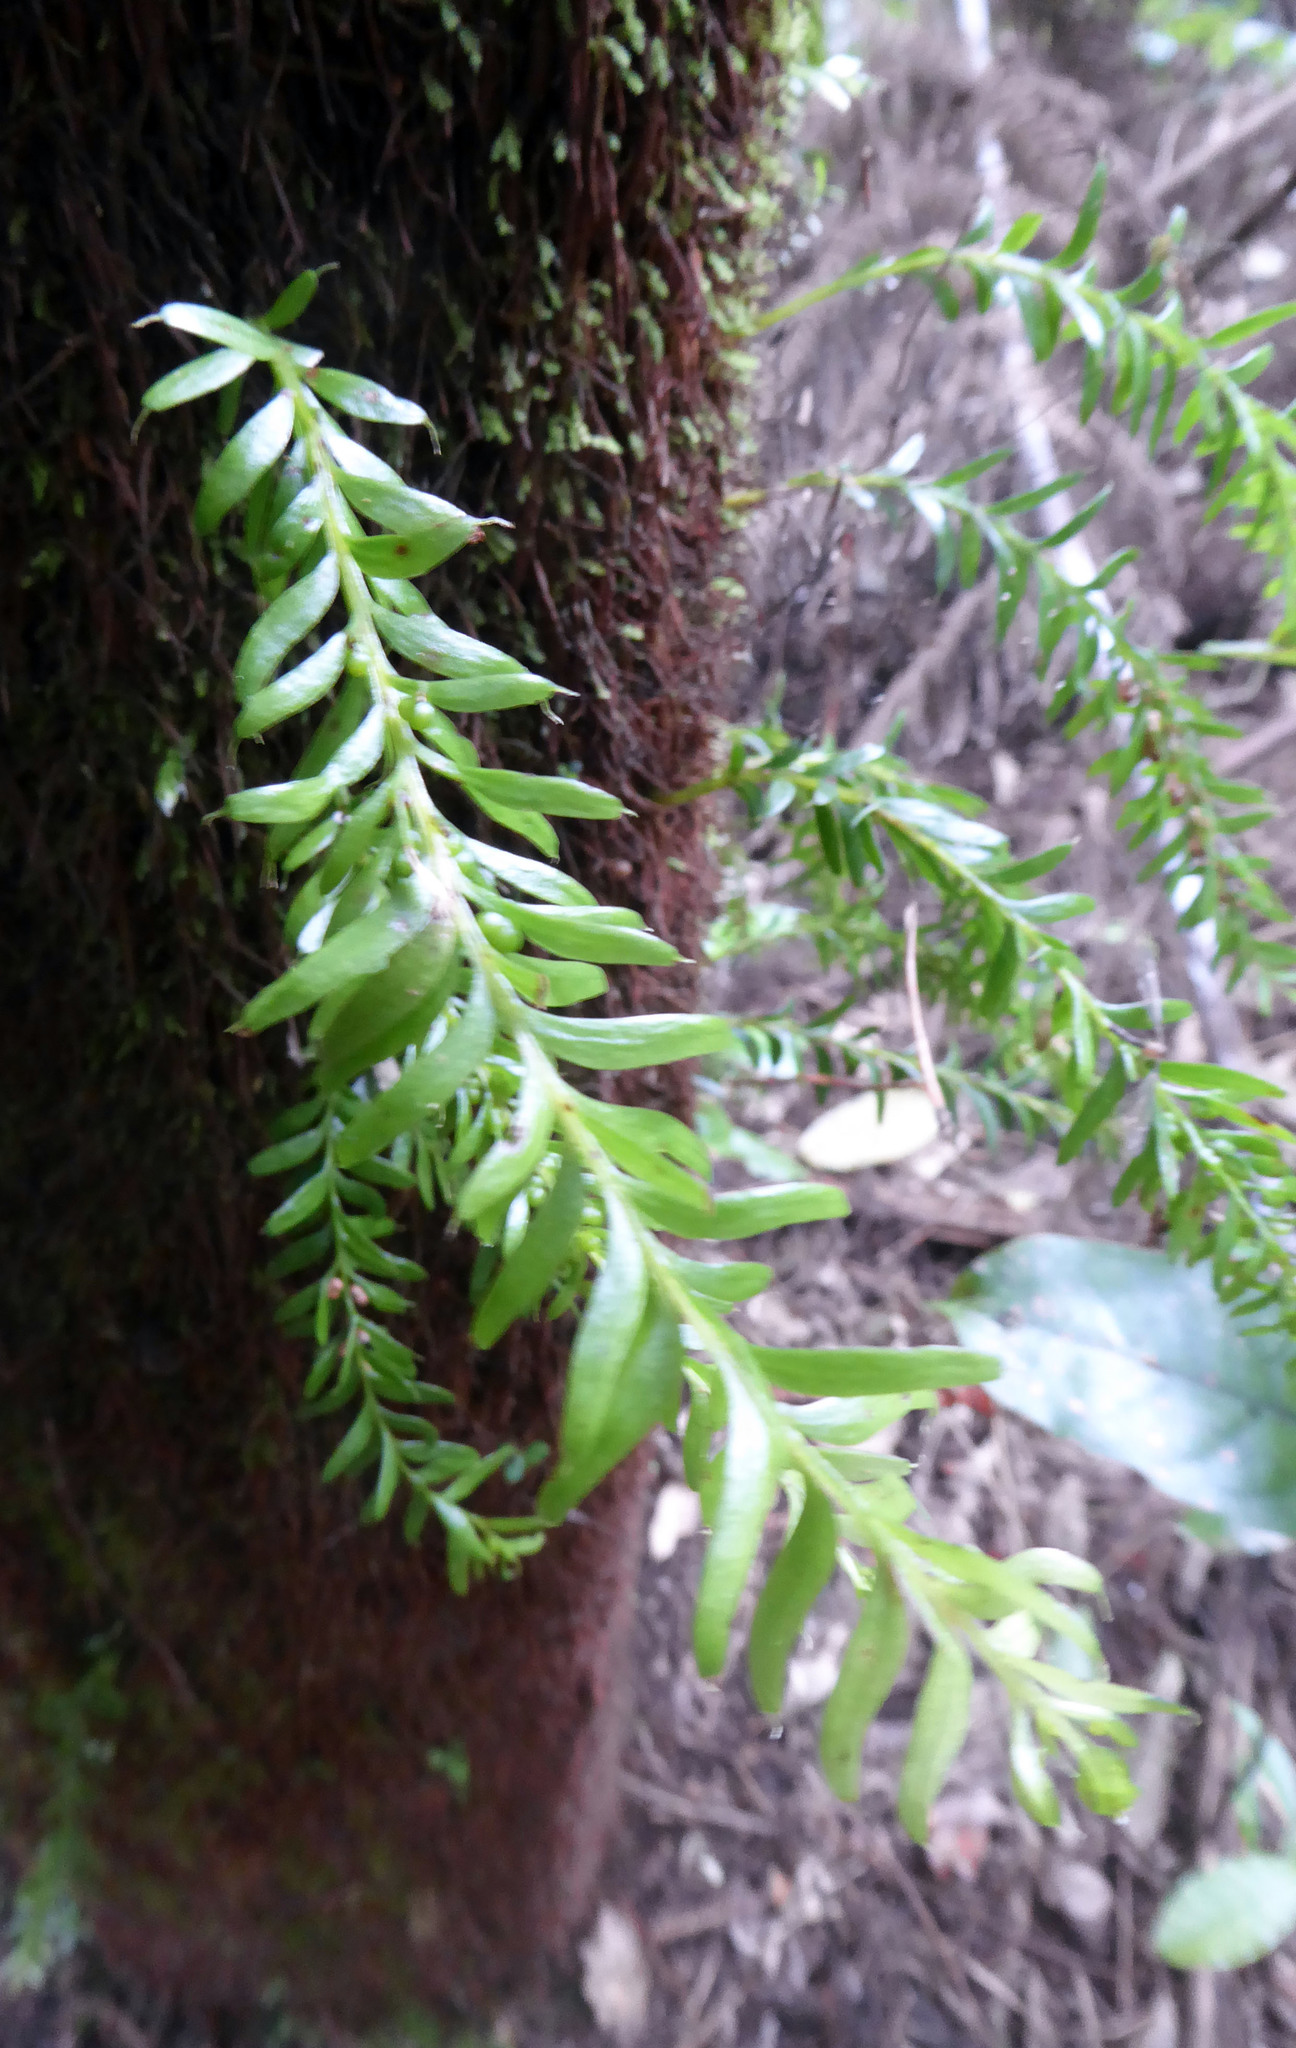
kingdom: Plantae
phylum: Tracheophyta
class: Polypodiopsida
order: Psilotales
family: Psilotaceae
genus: Tmesipteris
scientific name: Tmesipteris sigmatifolia
